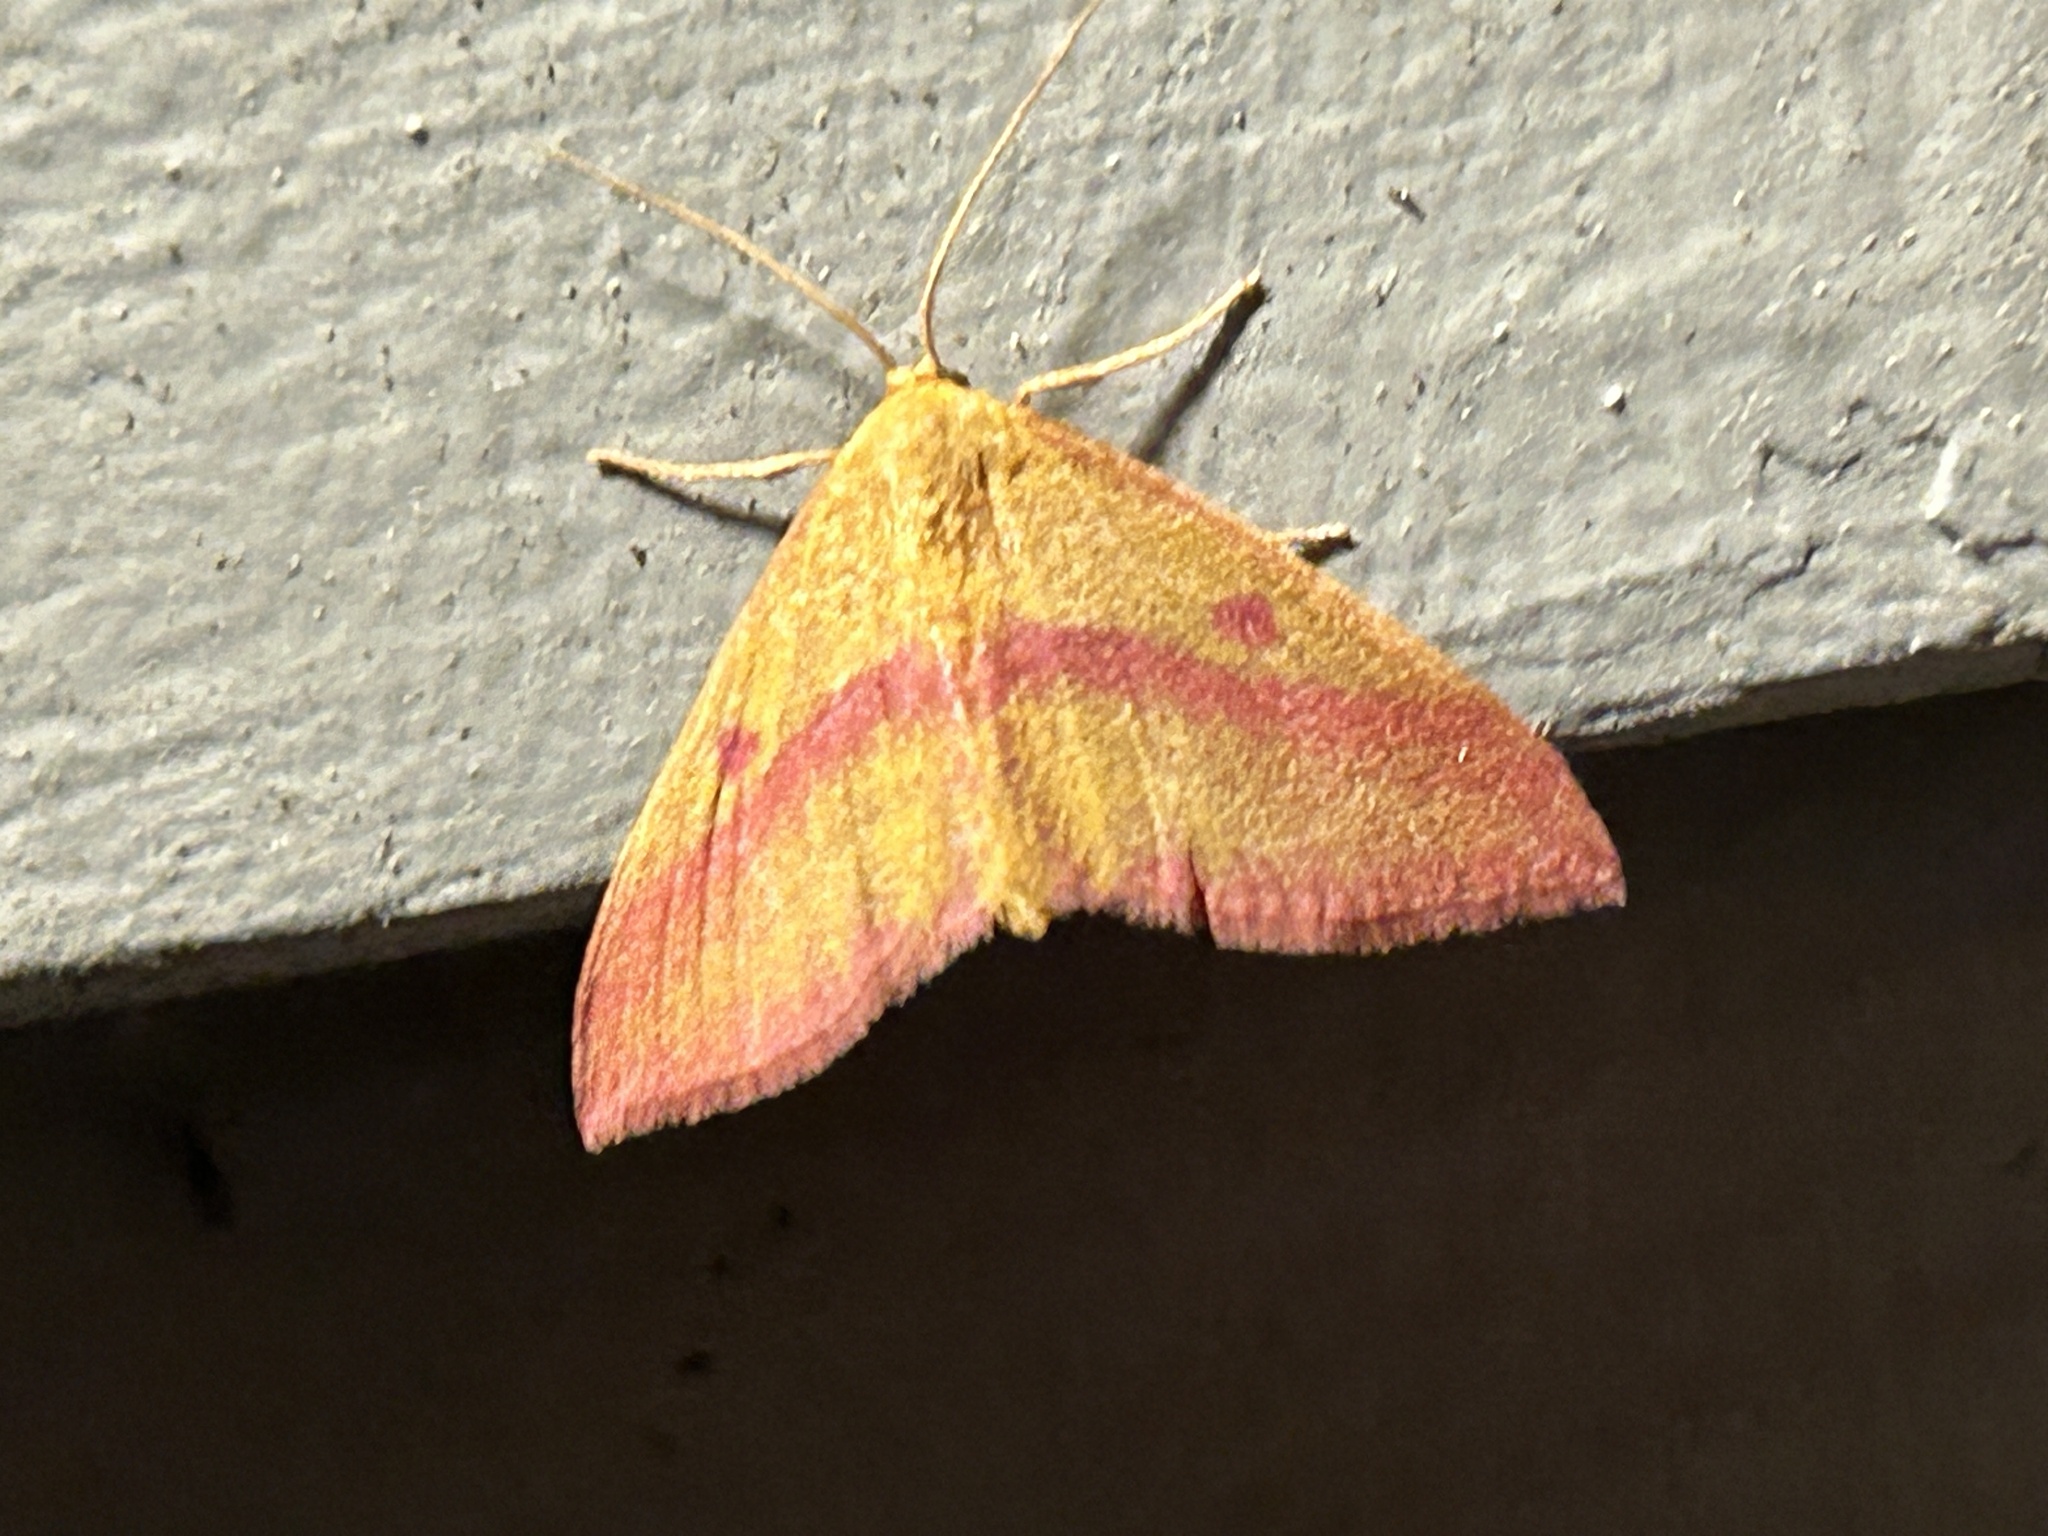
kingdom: Animalia
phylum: Arthropoda
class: Insecta
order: Lepidoptera
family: Geometridae
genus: Haematopis
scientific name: Haematopis grataria
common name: Chickweed geometer
